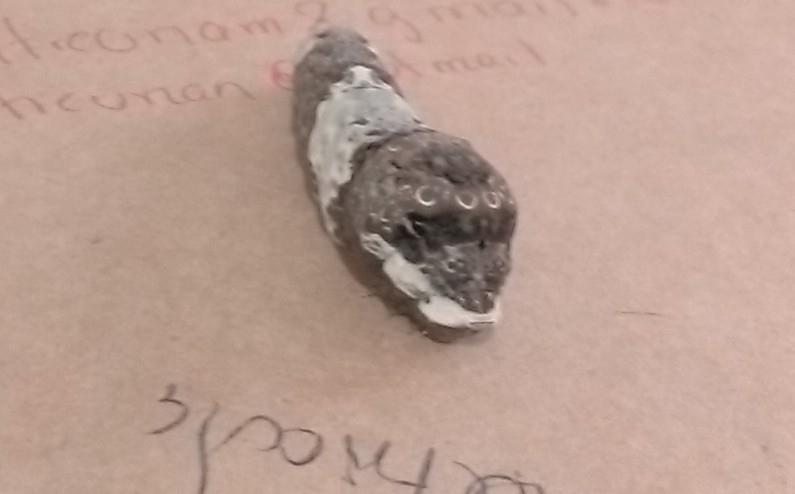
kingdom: Animalia
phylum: Arthropoda
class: Insecta
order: Lepidoptera
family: Papilionidae
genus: Papilio
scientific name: Papilio rumiko
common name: Western giant swallowtail
